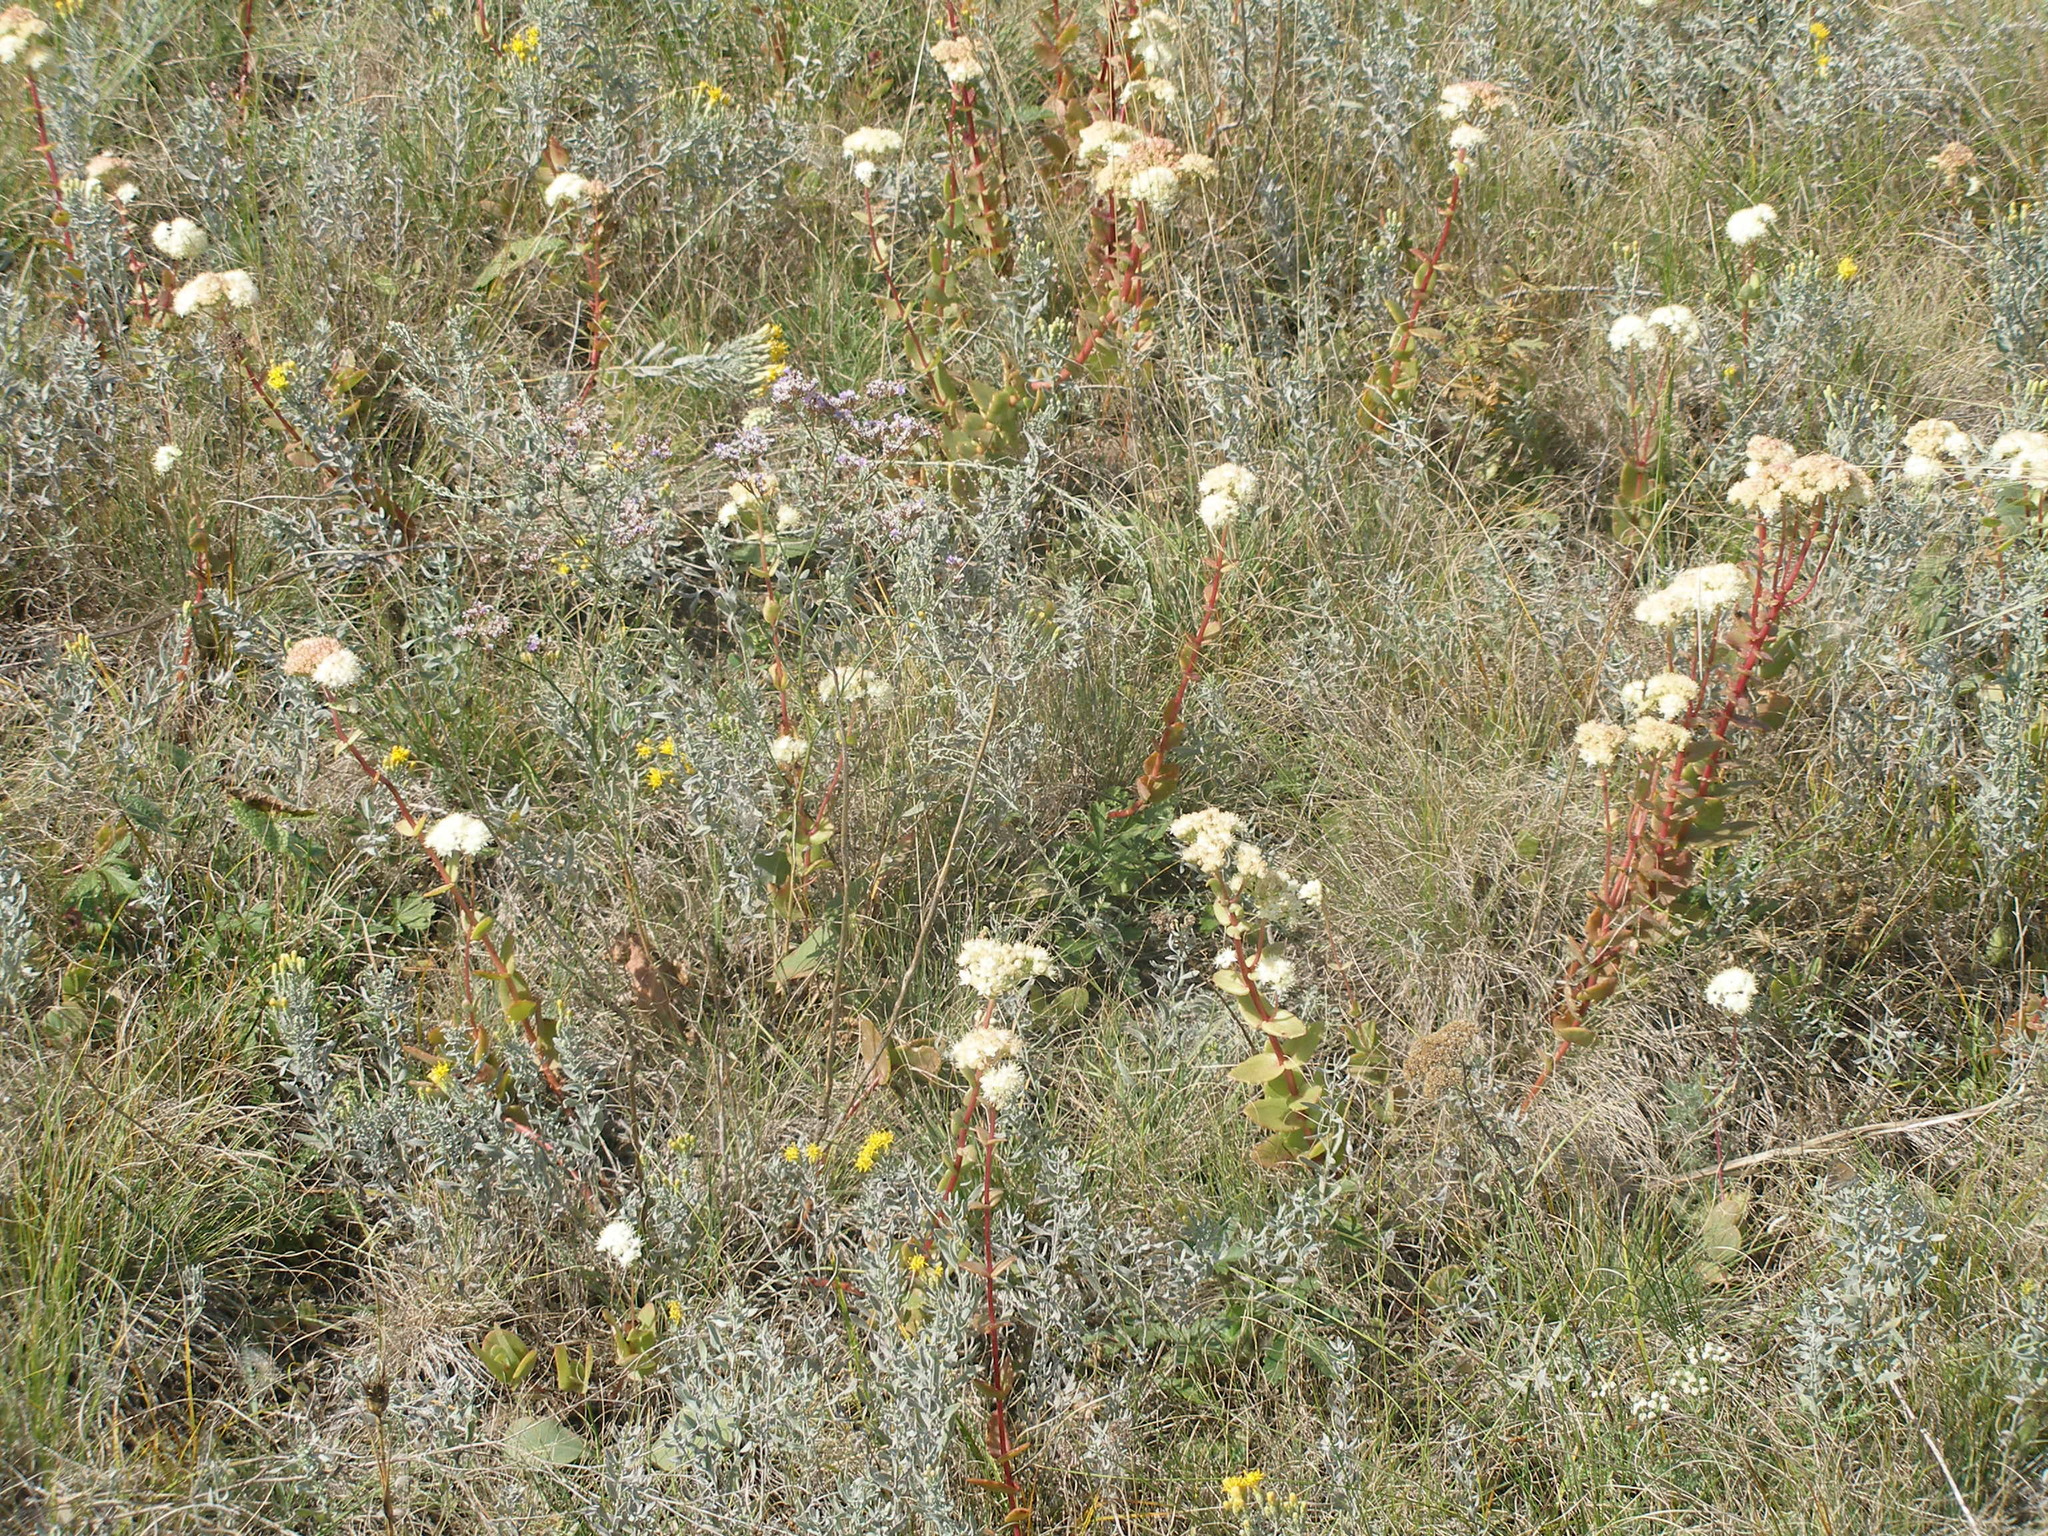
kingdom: Plantae
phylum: Tracheophyta
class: Magnoliopsida
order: Saxifragales
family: Crassulaceae
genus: Hylotelephium
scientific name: Hylotelephium maximum
